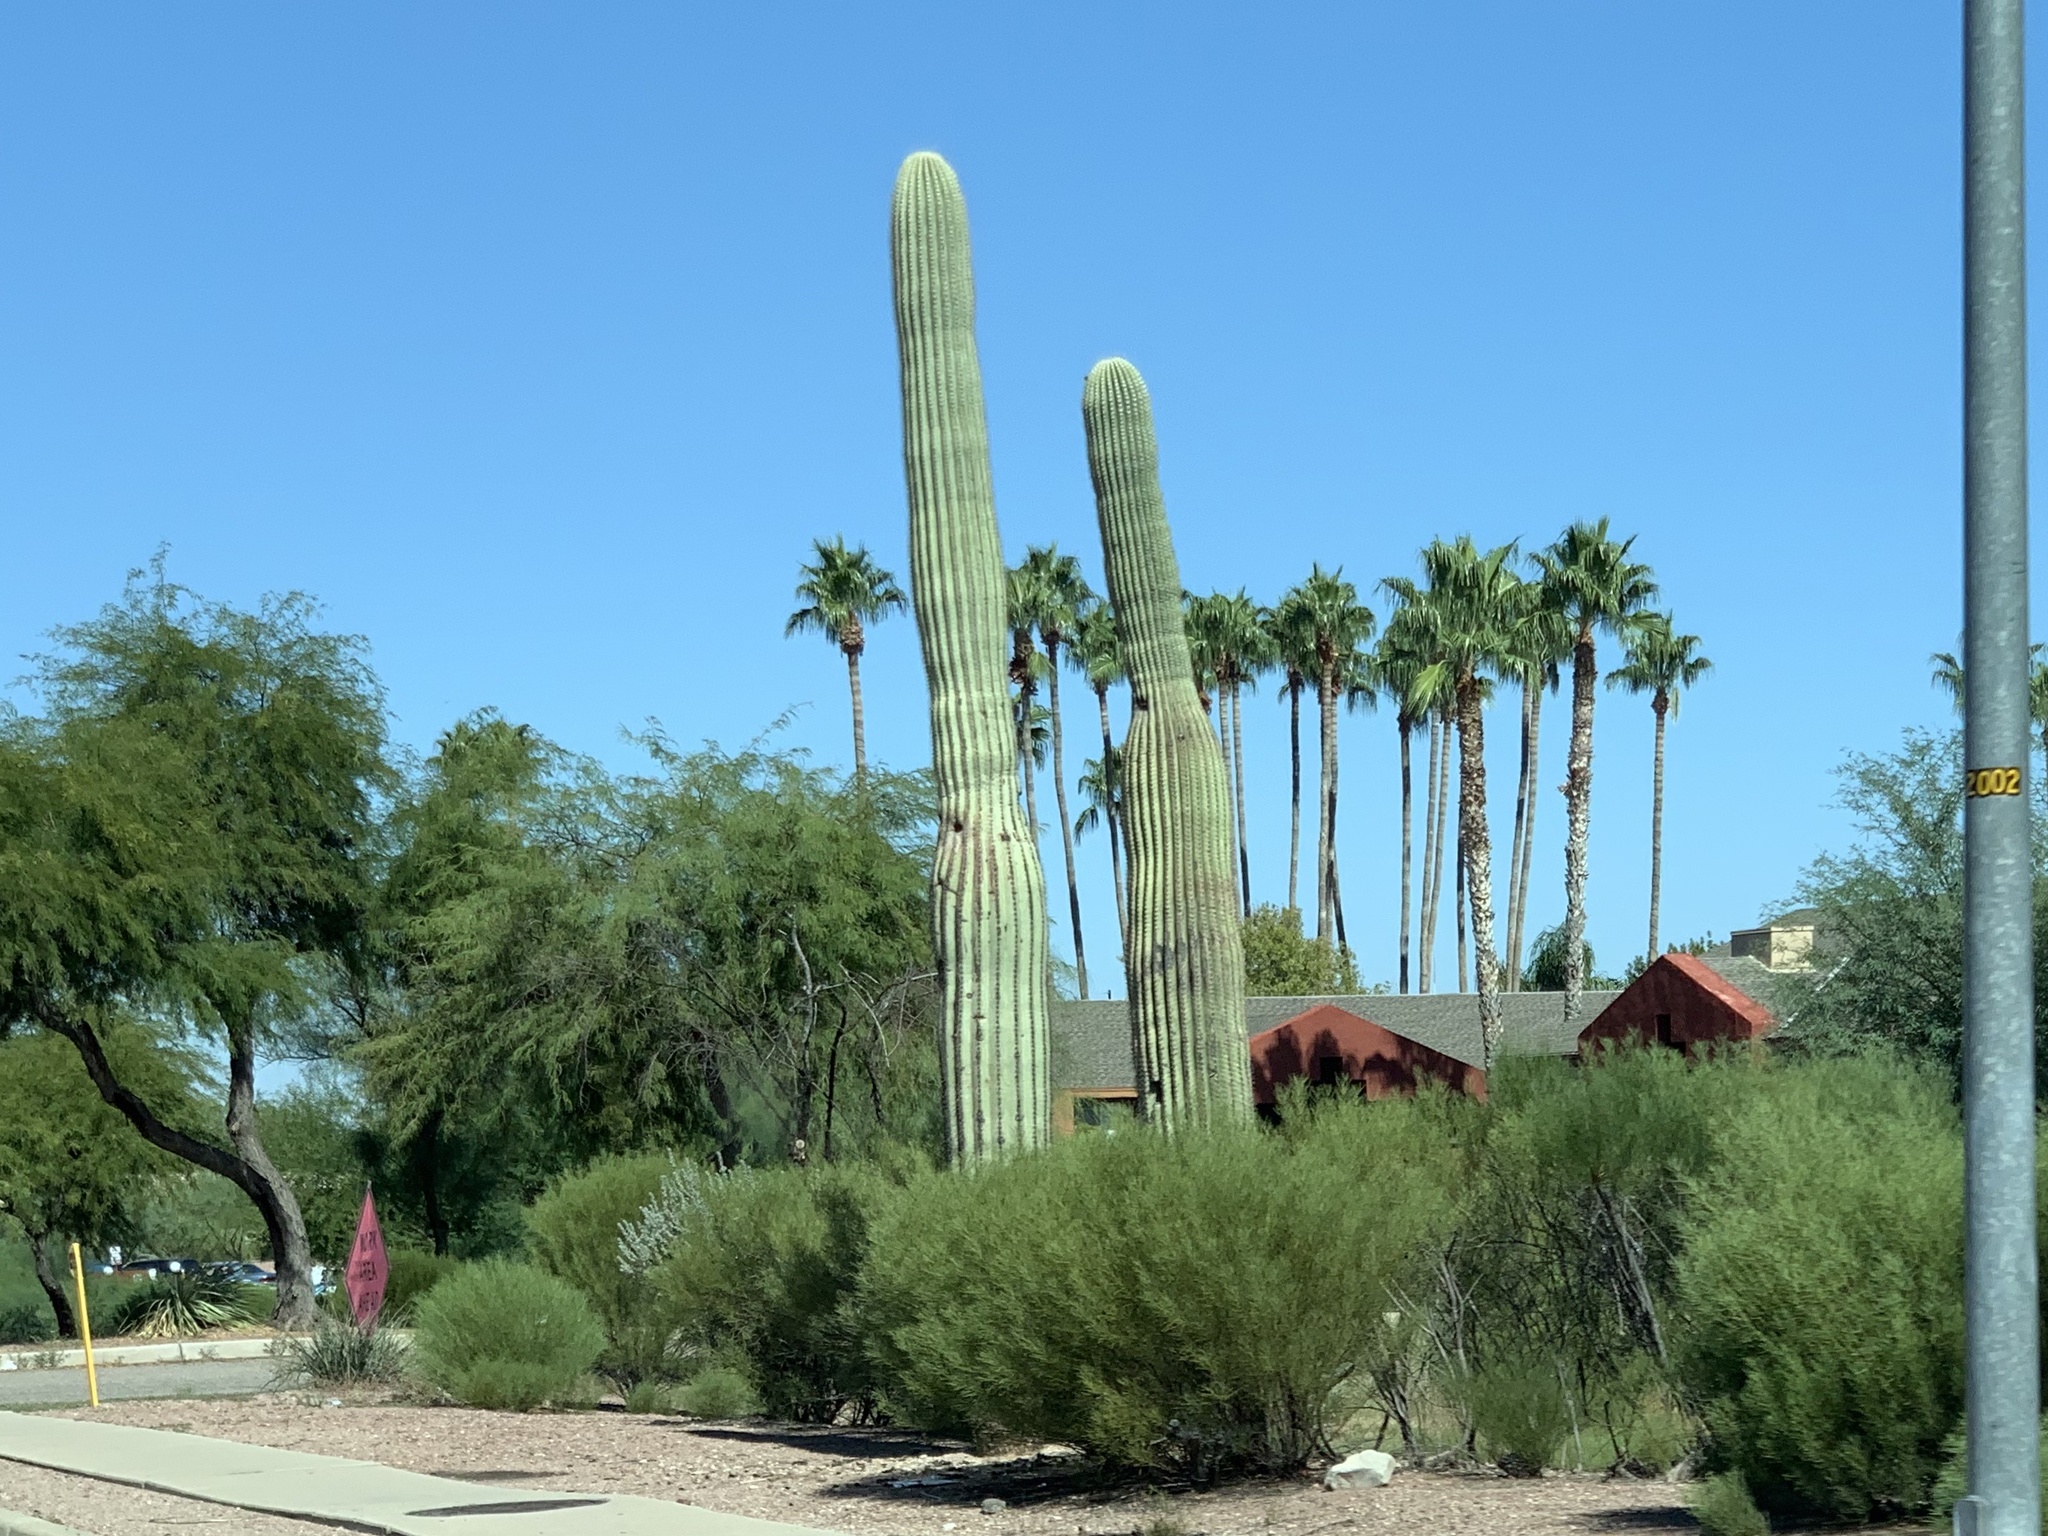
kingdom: Plantae
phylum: Tracheophyta
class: Magnoliopsida
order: Caryophyllales
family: Cactaceae
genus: Carnegiea
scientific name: Carnegiea gigantea
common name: Saguaro
